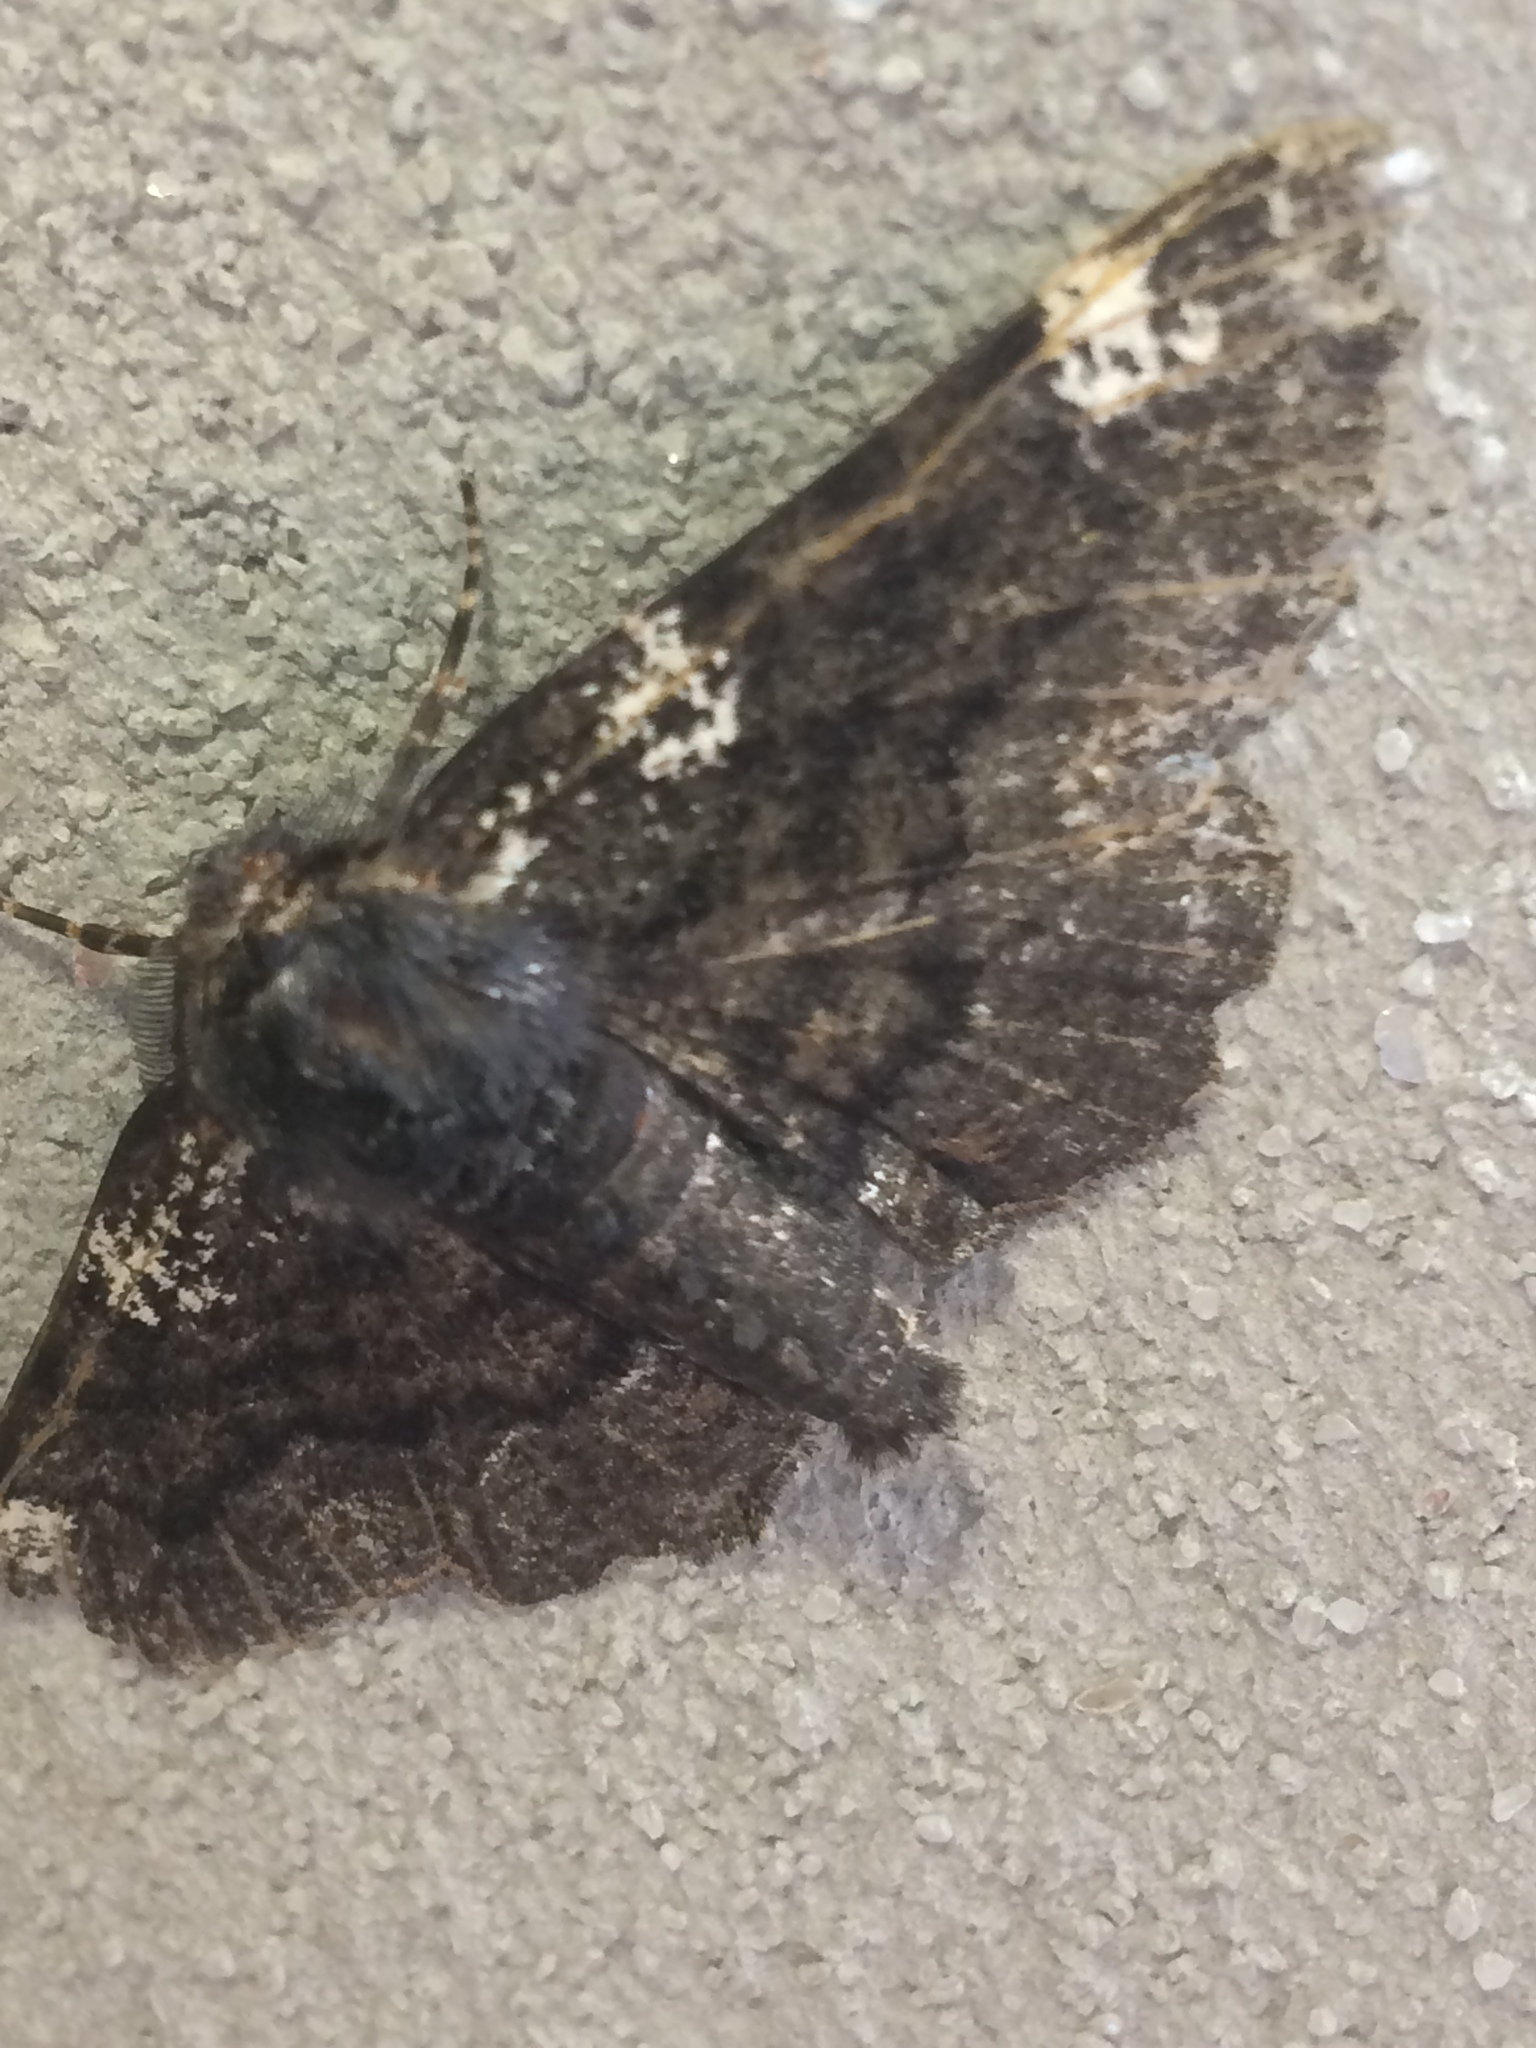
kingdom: Animalia
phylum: Arthropoda
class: Insecta
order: Lepidoptera
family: Geometridae
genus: Phaeoura
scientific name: Phaeoura quernaria
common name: Oak beauty
